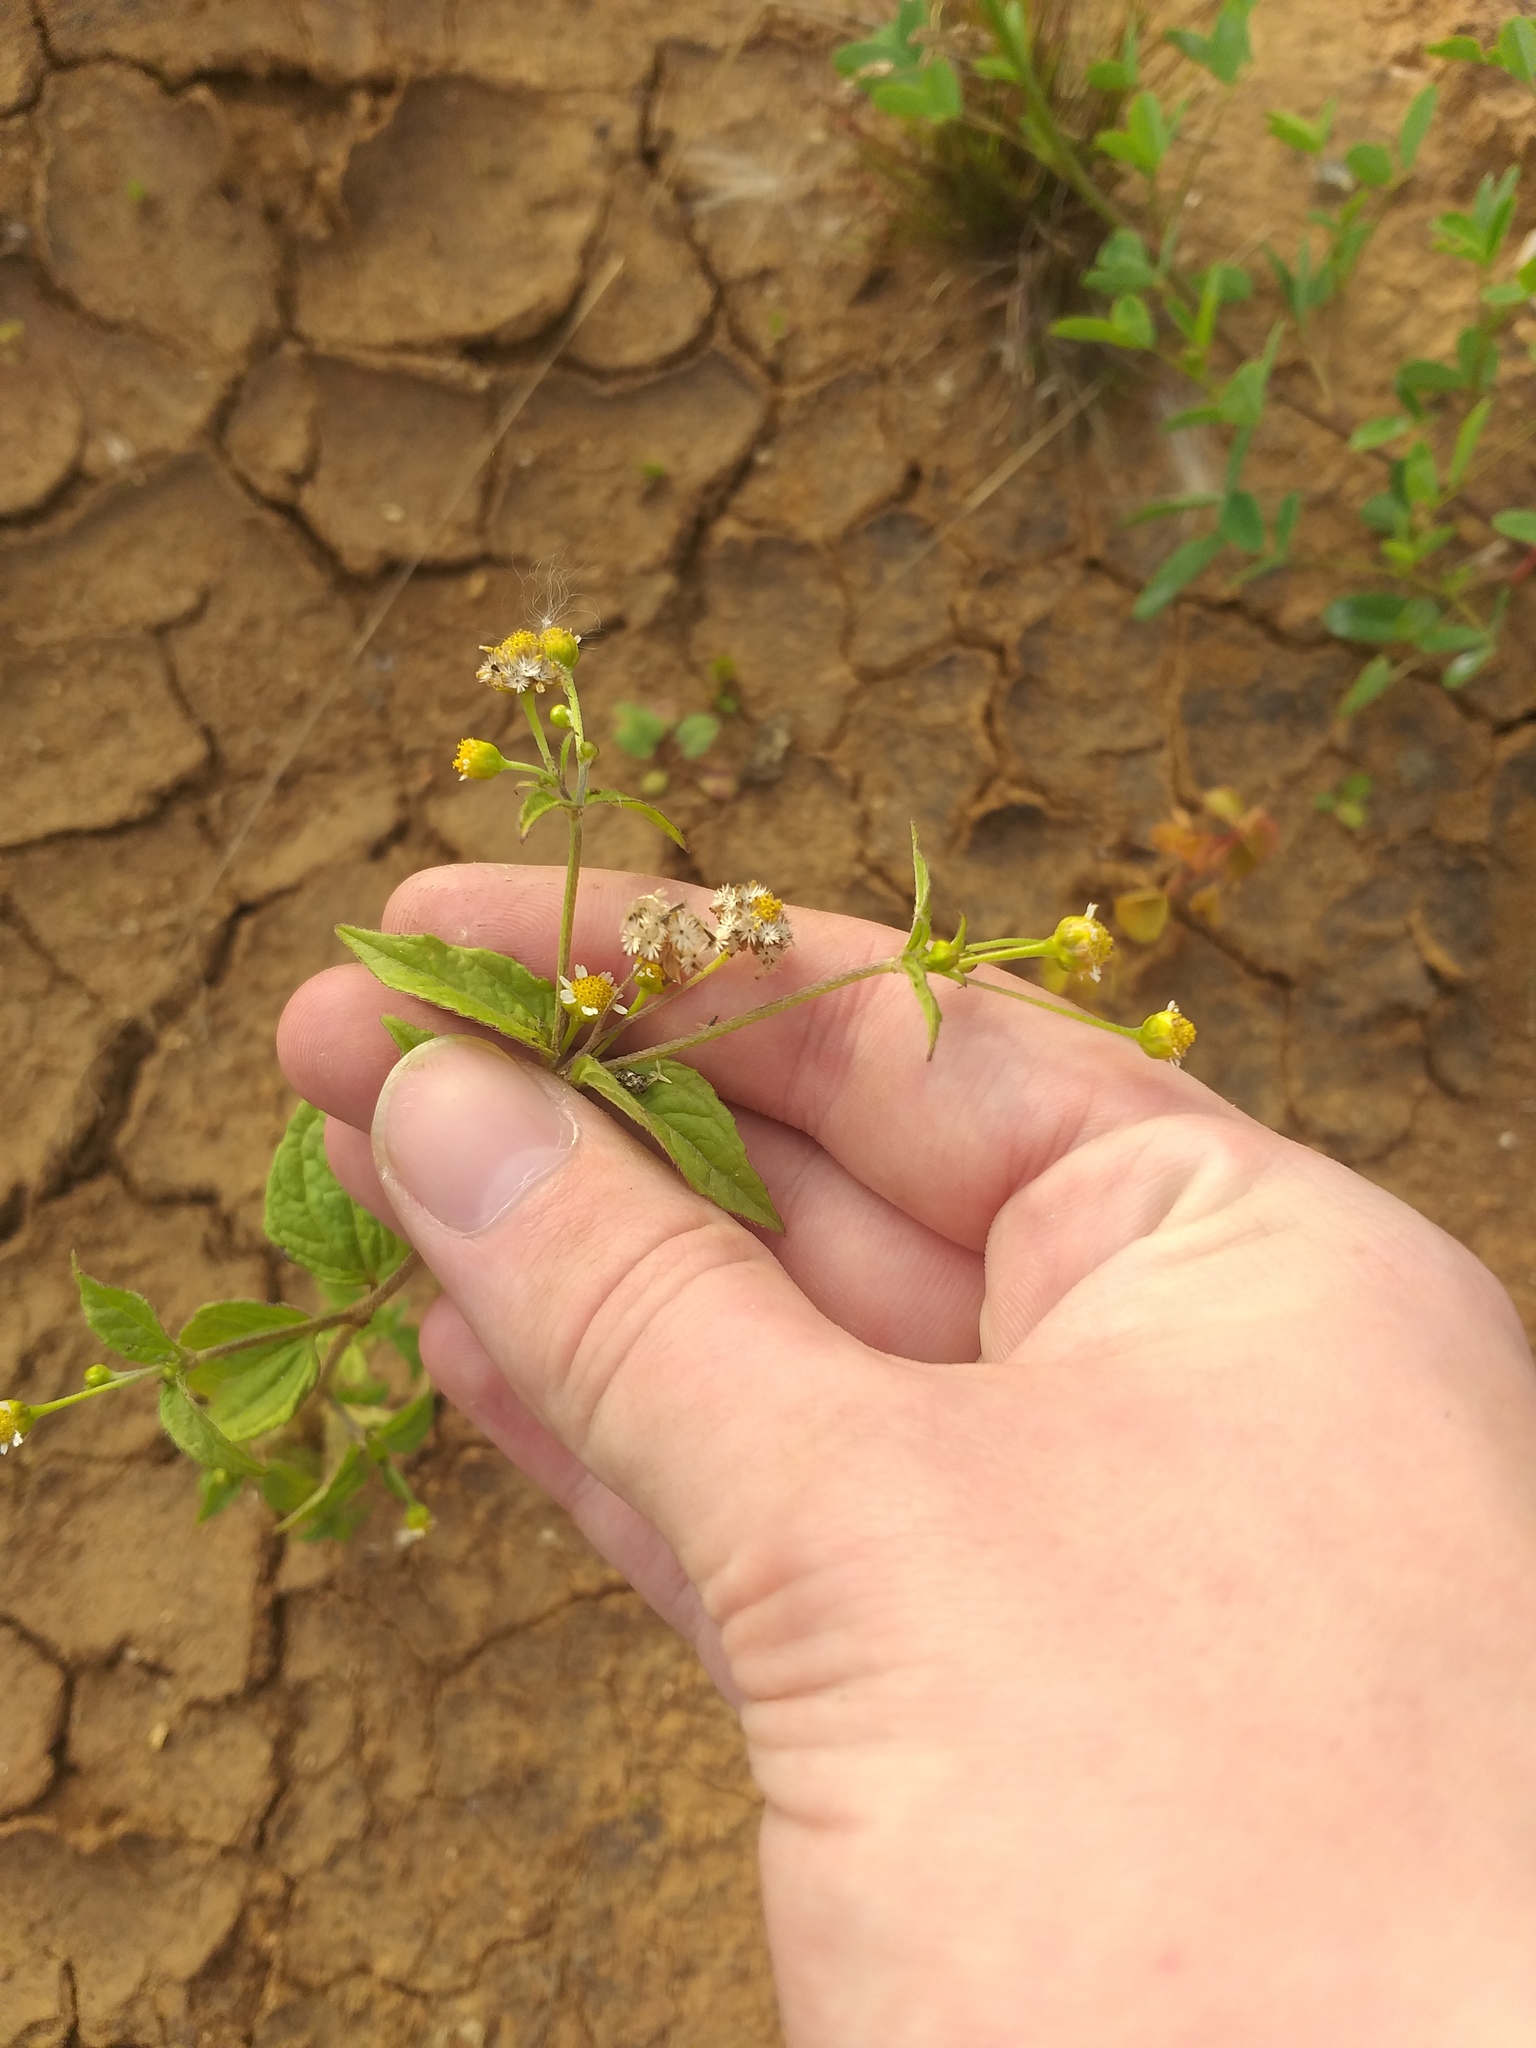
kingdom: Plantae
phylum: Tracheophyta
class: Magnoliopsida
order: Asterales
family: Asteraceae
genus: Galinsoga
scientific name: Galinsoga parviflora
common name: Gallant soldier
